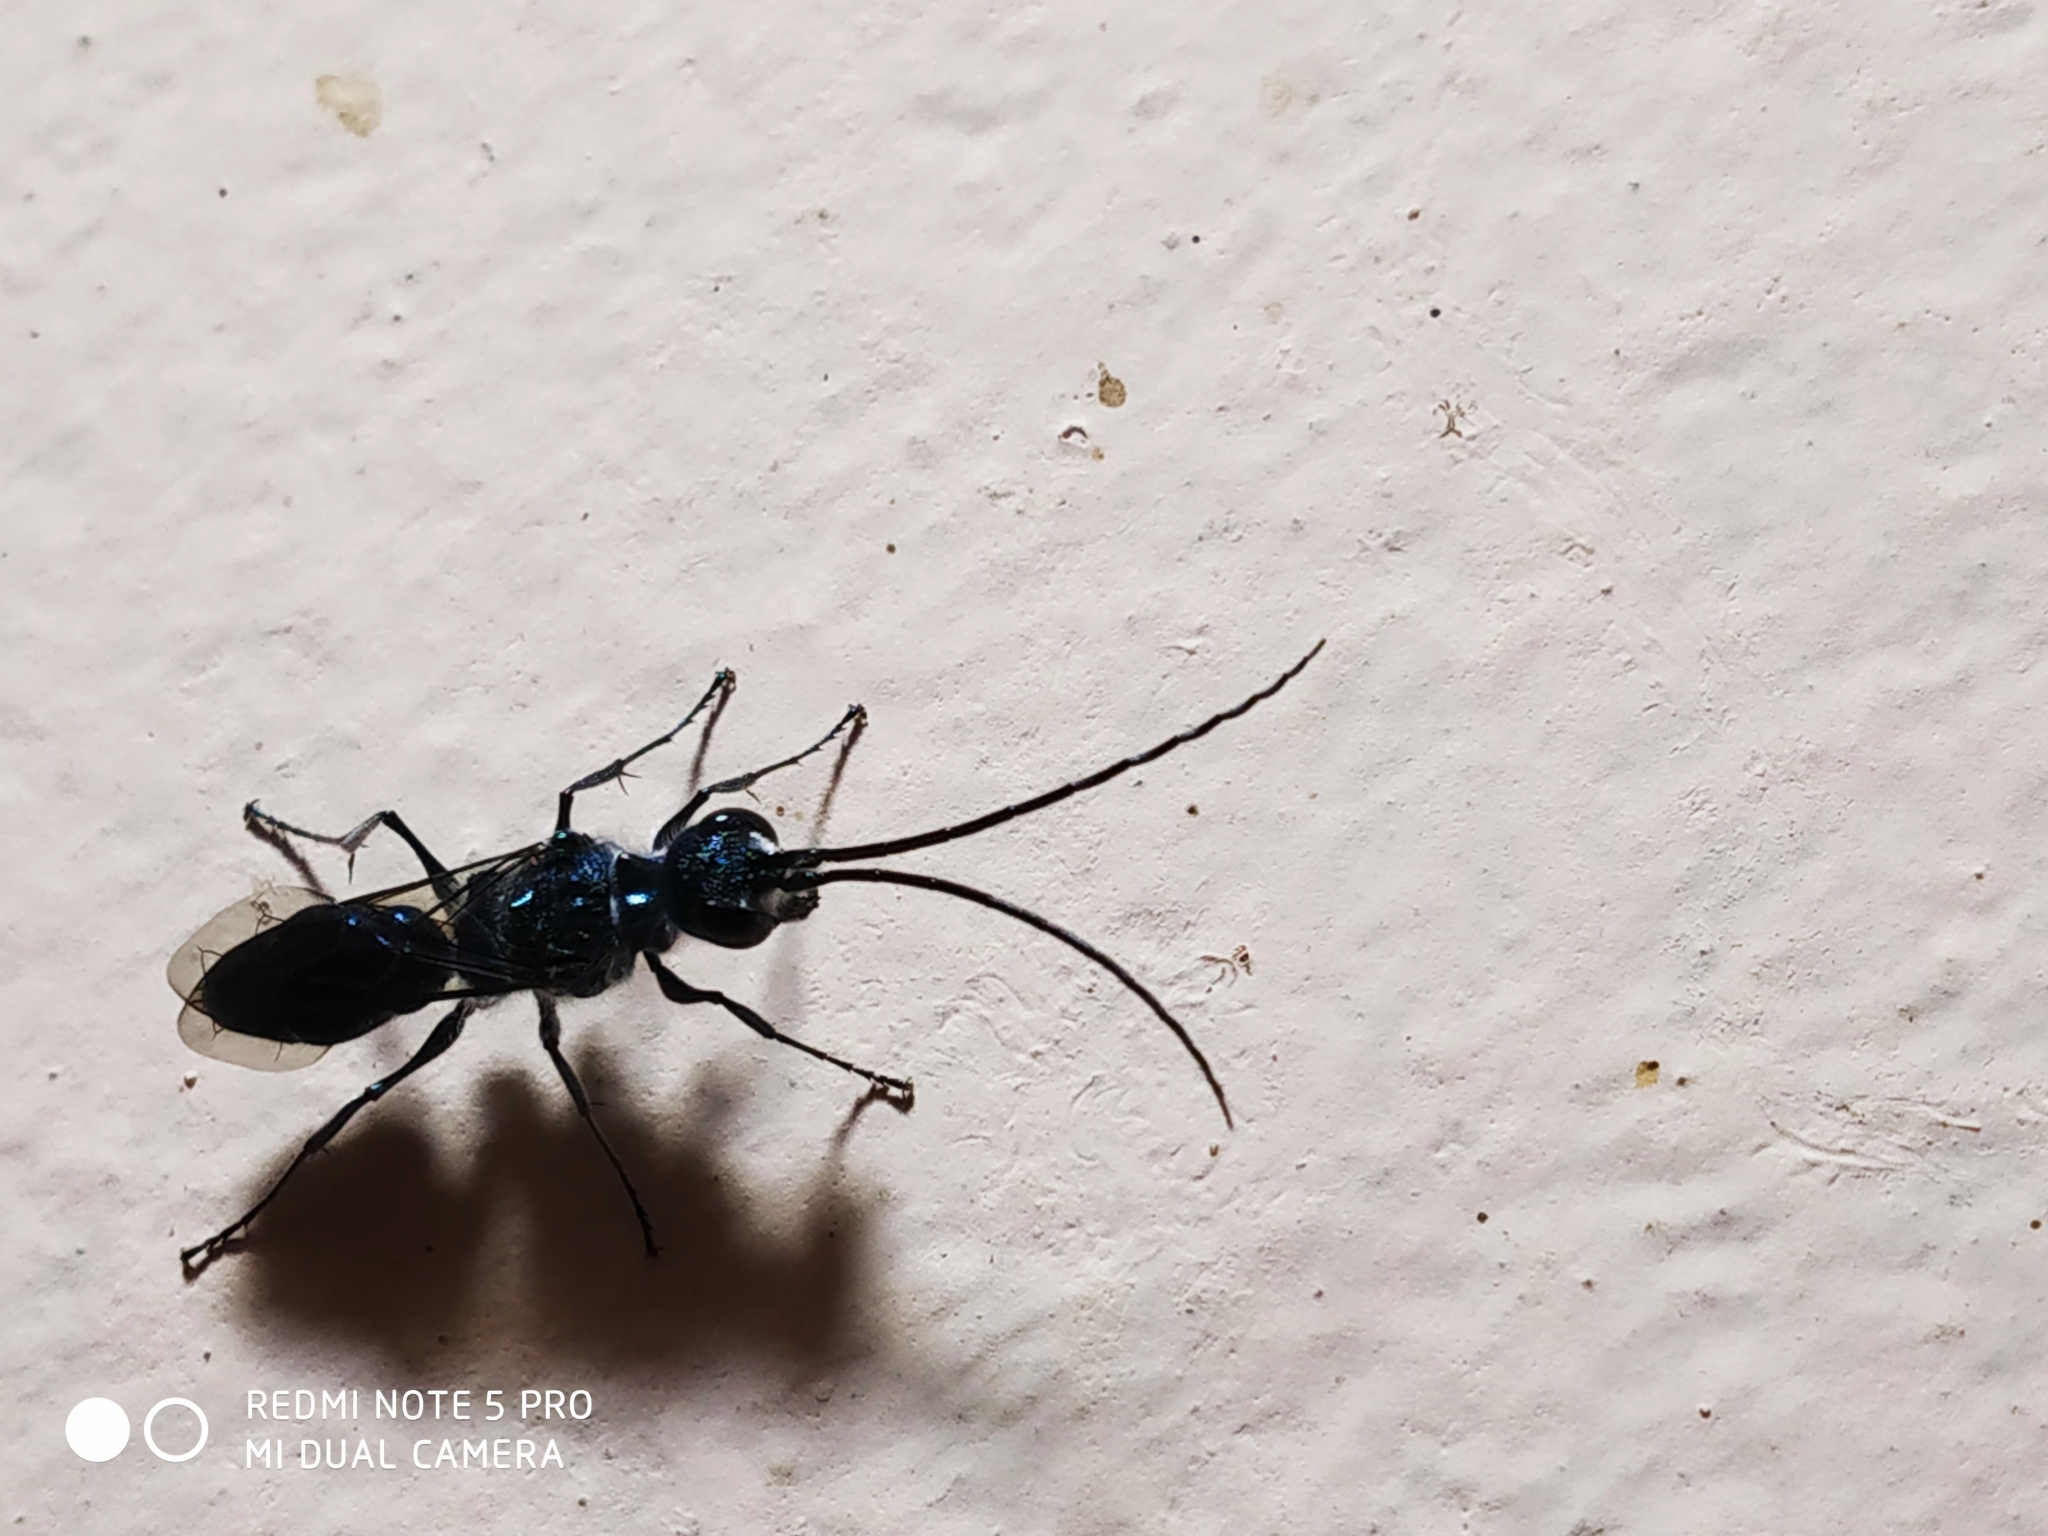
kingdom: Animalia
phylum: Arthropoda
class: Insecta
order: Hymenoptera
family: Ampulicidae
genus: Trirogma
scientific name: Trirogma caerulea
